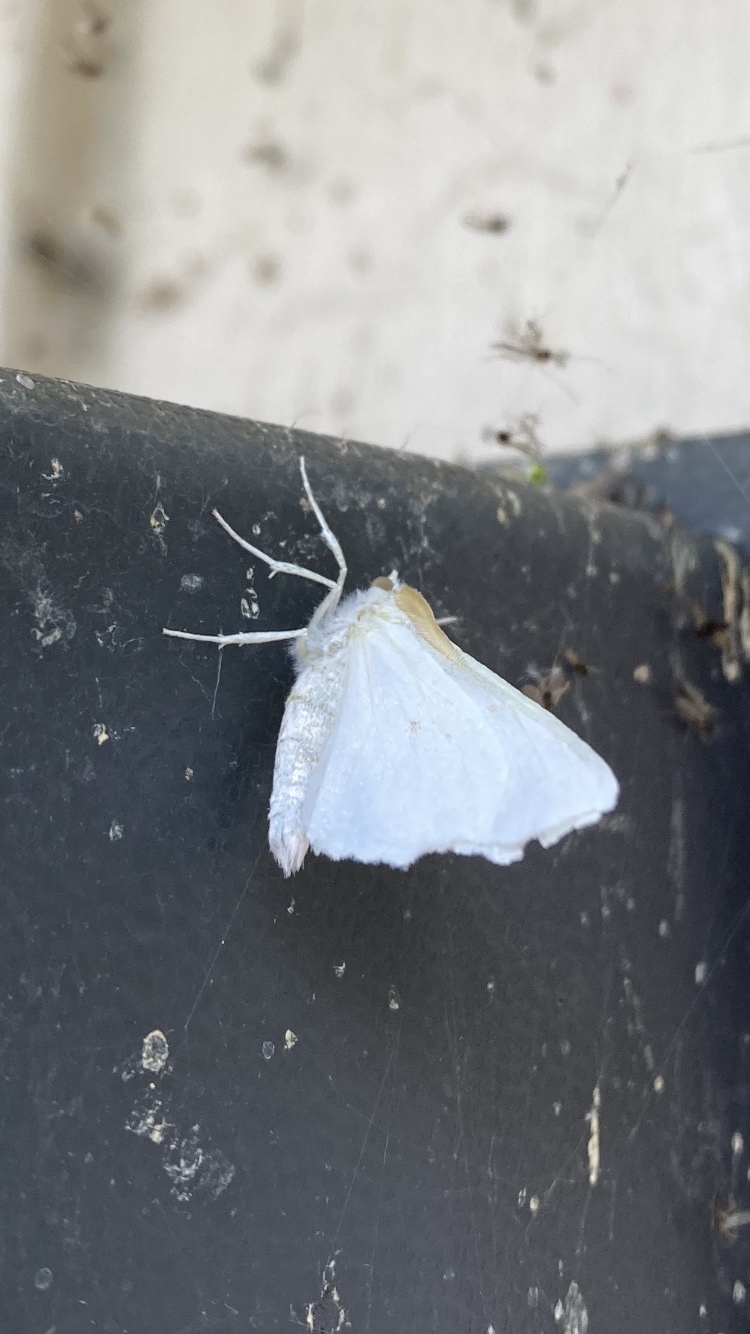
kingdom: Animalia
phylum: Arthropoda
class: Insecta
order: Lepidoptera
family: Geometridae
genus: Ennomos
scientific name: Ennomos subsignaria
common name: Elm spanworm
